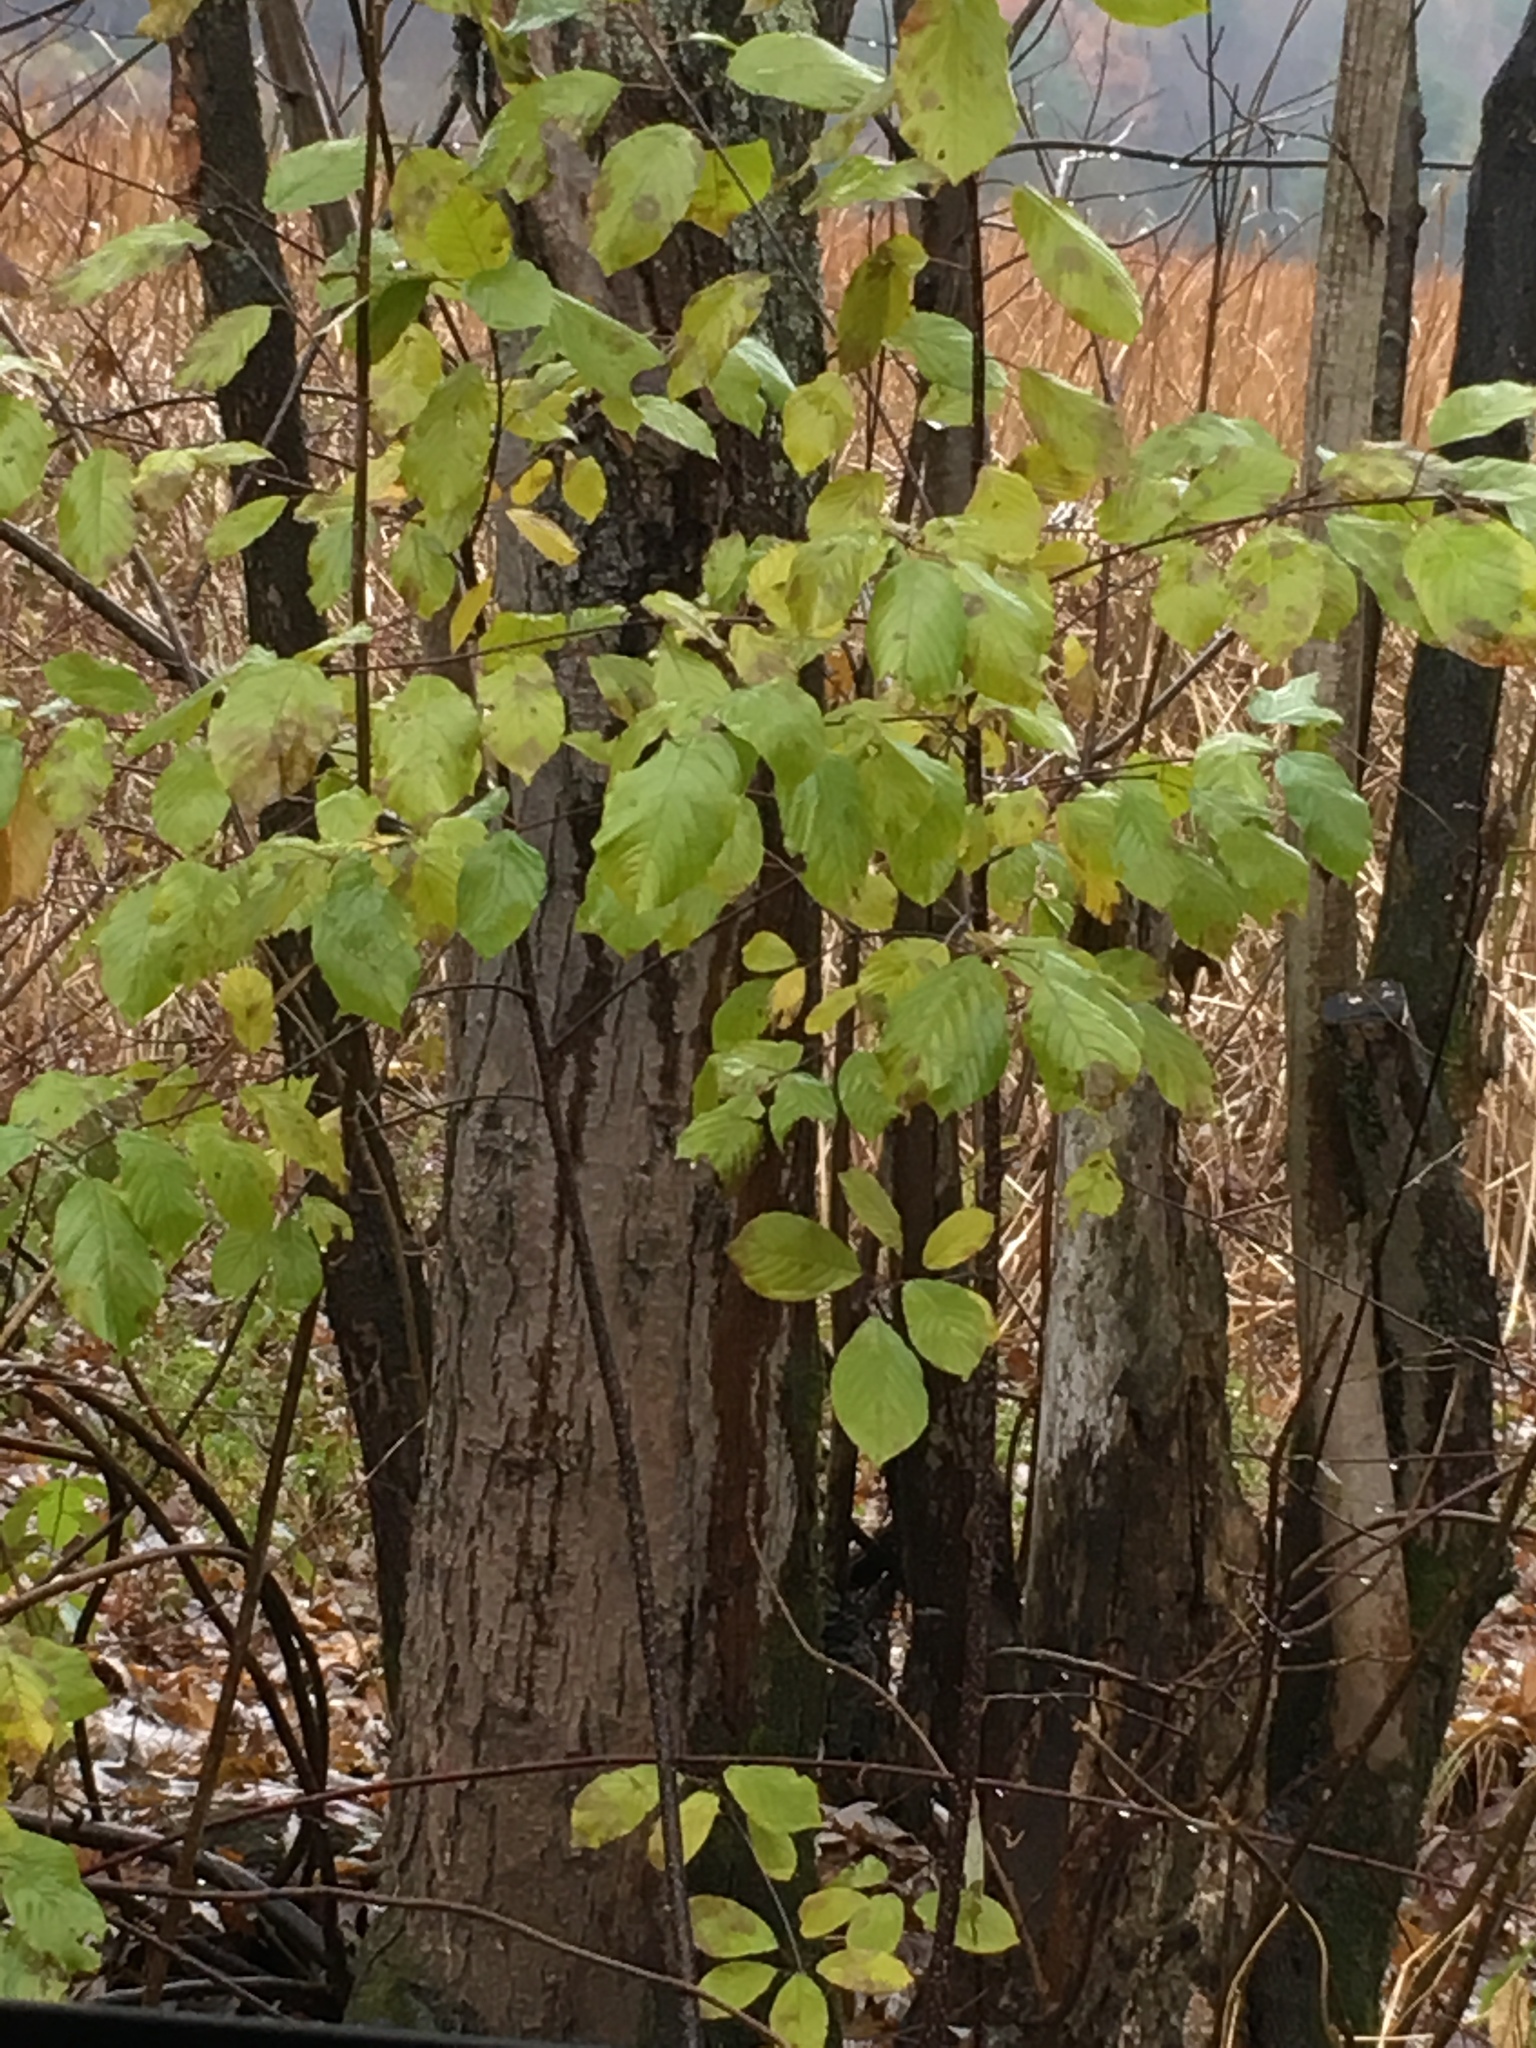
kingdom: Plantae
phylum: Tracheophyta
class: Magnoliopsida
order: Rosales
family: Rhamnaceae
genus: Frangula
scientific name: Frangula alnus
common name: Alder buckthorn
